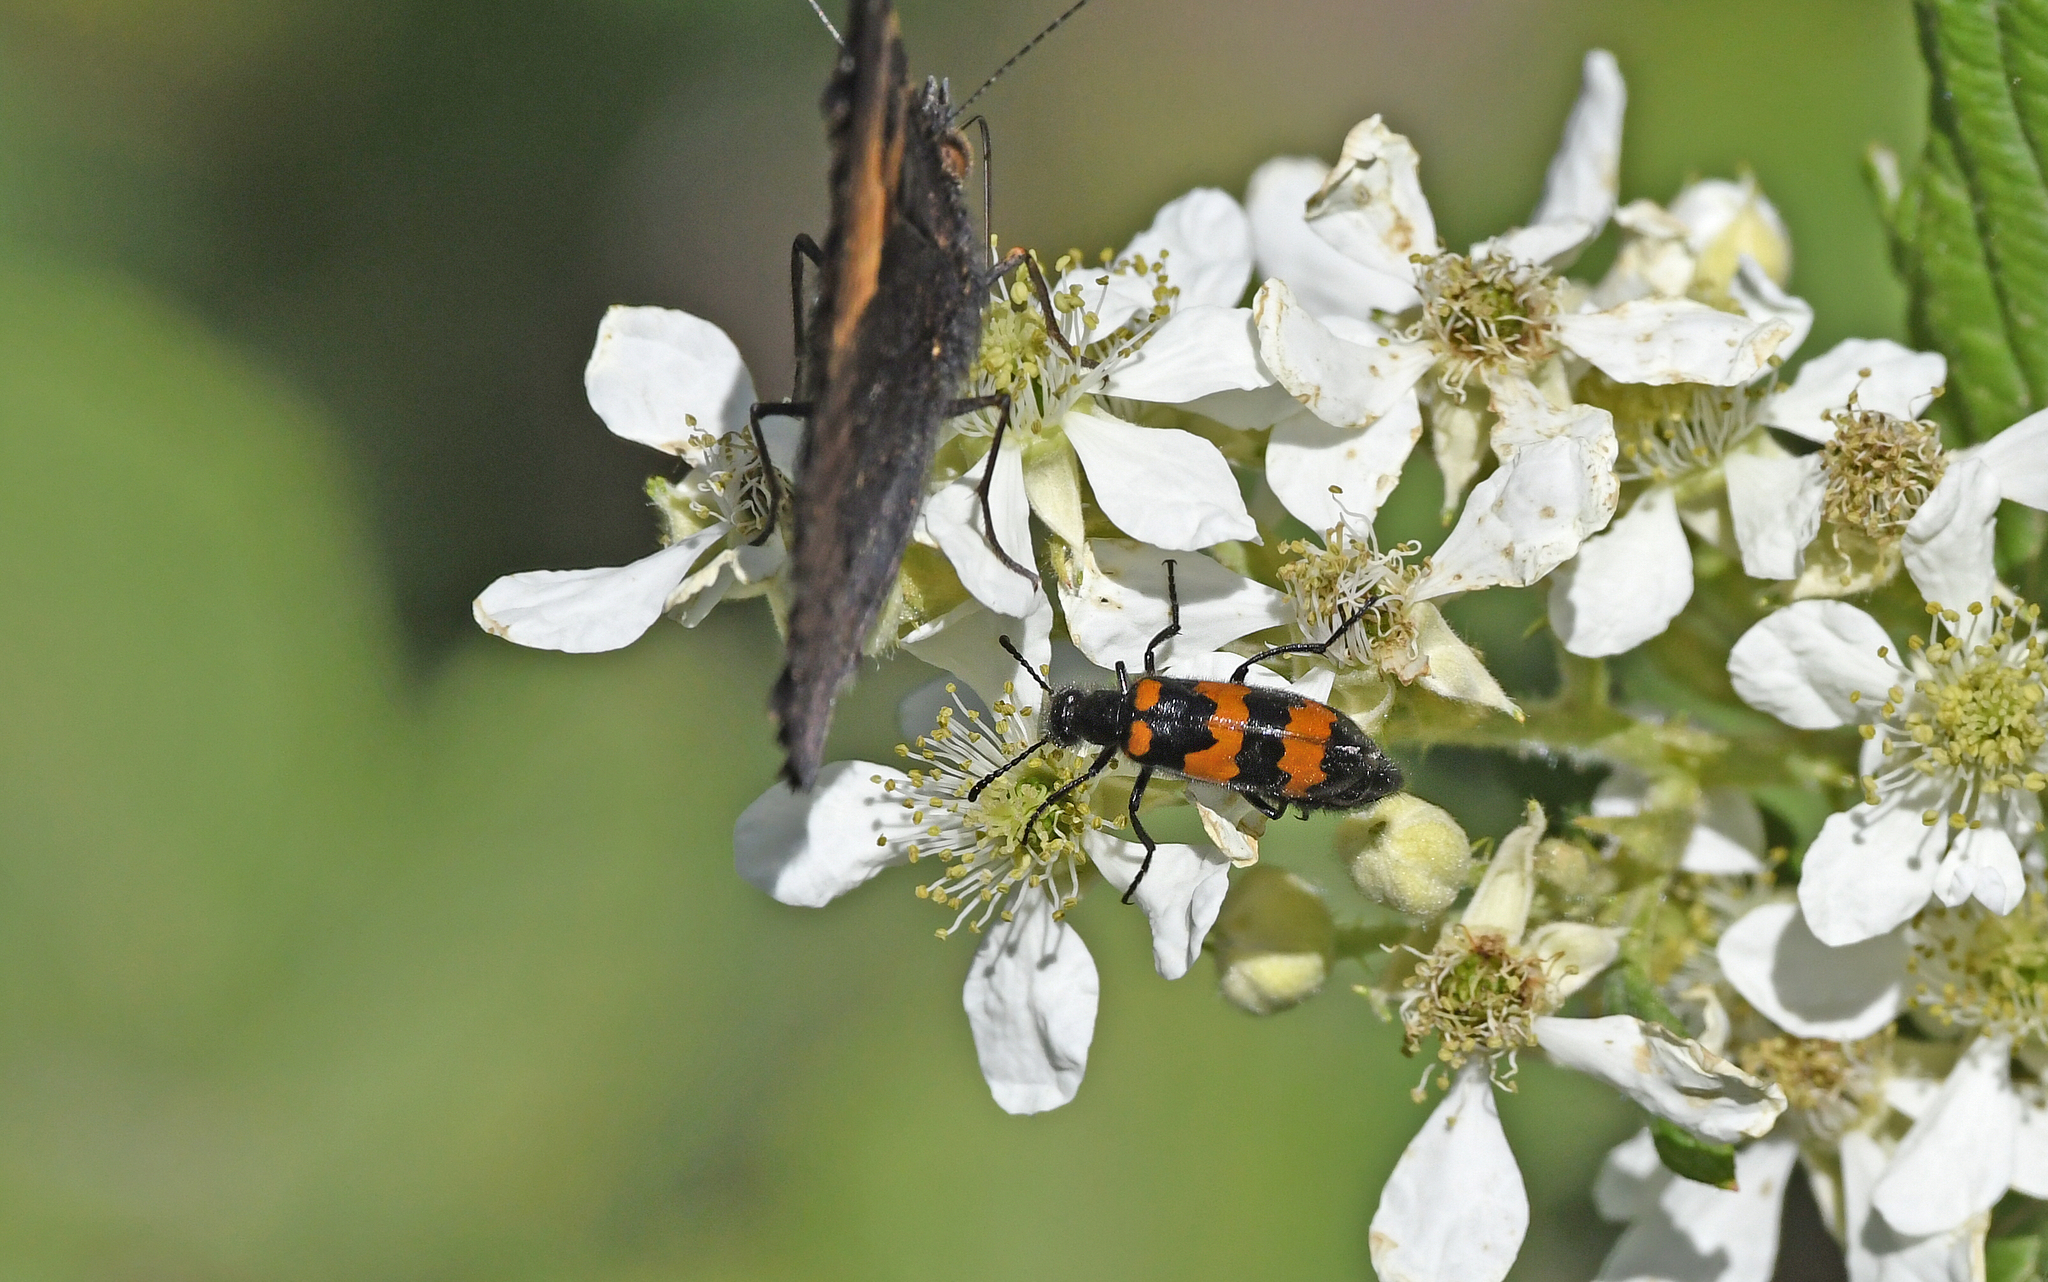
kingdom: Animalia
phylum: Arthropoda
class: Insecta
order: Coleoptera
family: Meloidae
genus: Mylabris
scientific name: Mylabris variabilis
